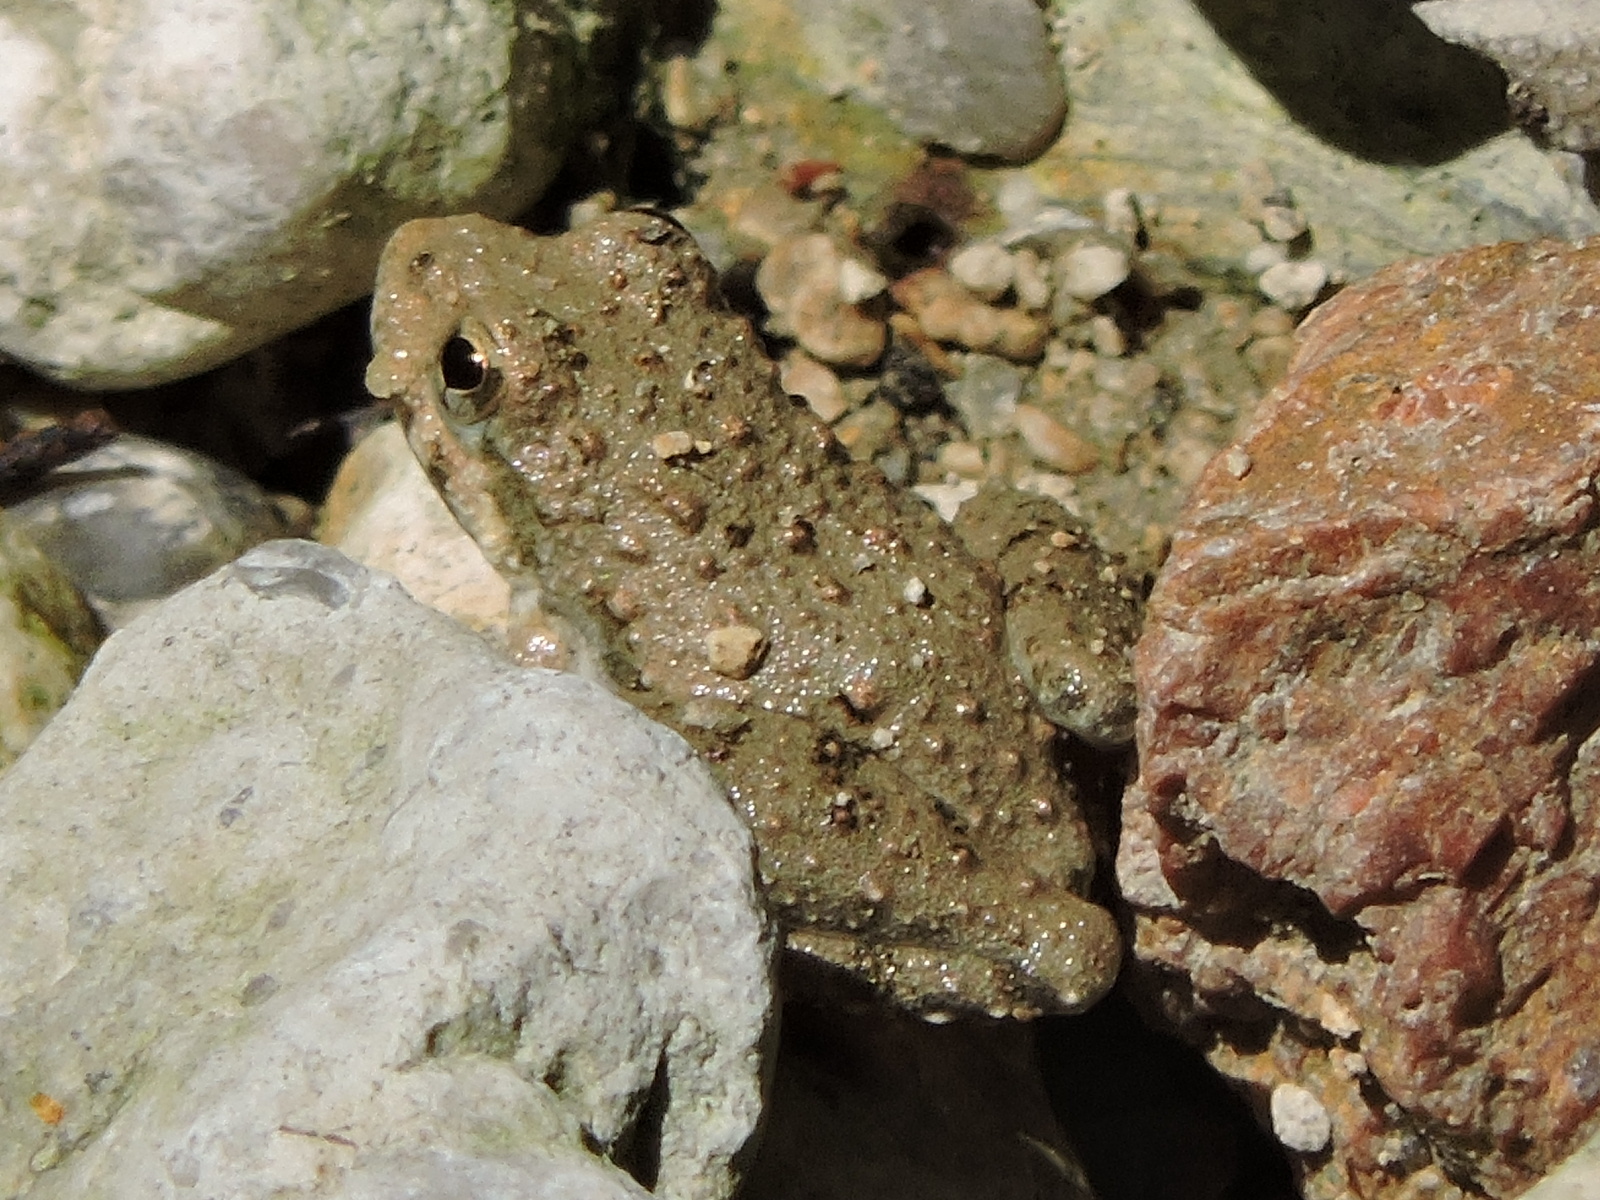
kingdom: Animalia
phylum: Chordata
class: Amphibia
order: Anura
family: Hylidae
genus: Acris
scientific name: Acris blanchardi
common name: Blanchard's cricket frog
